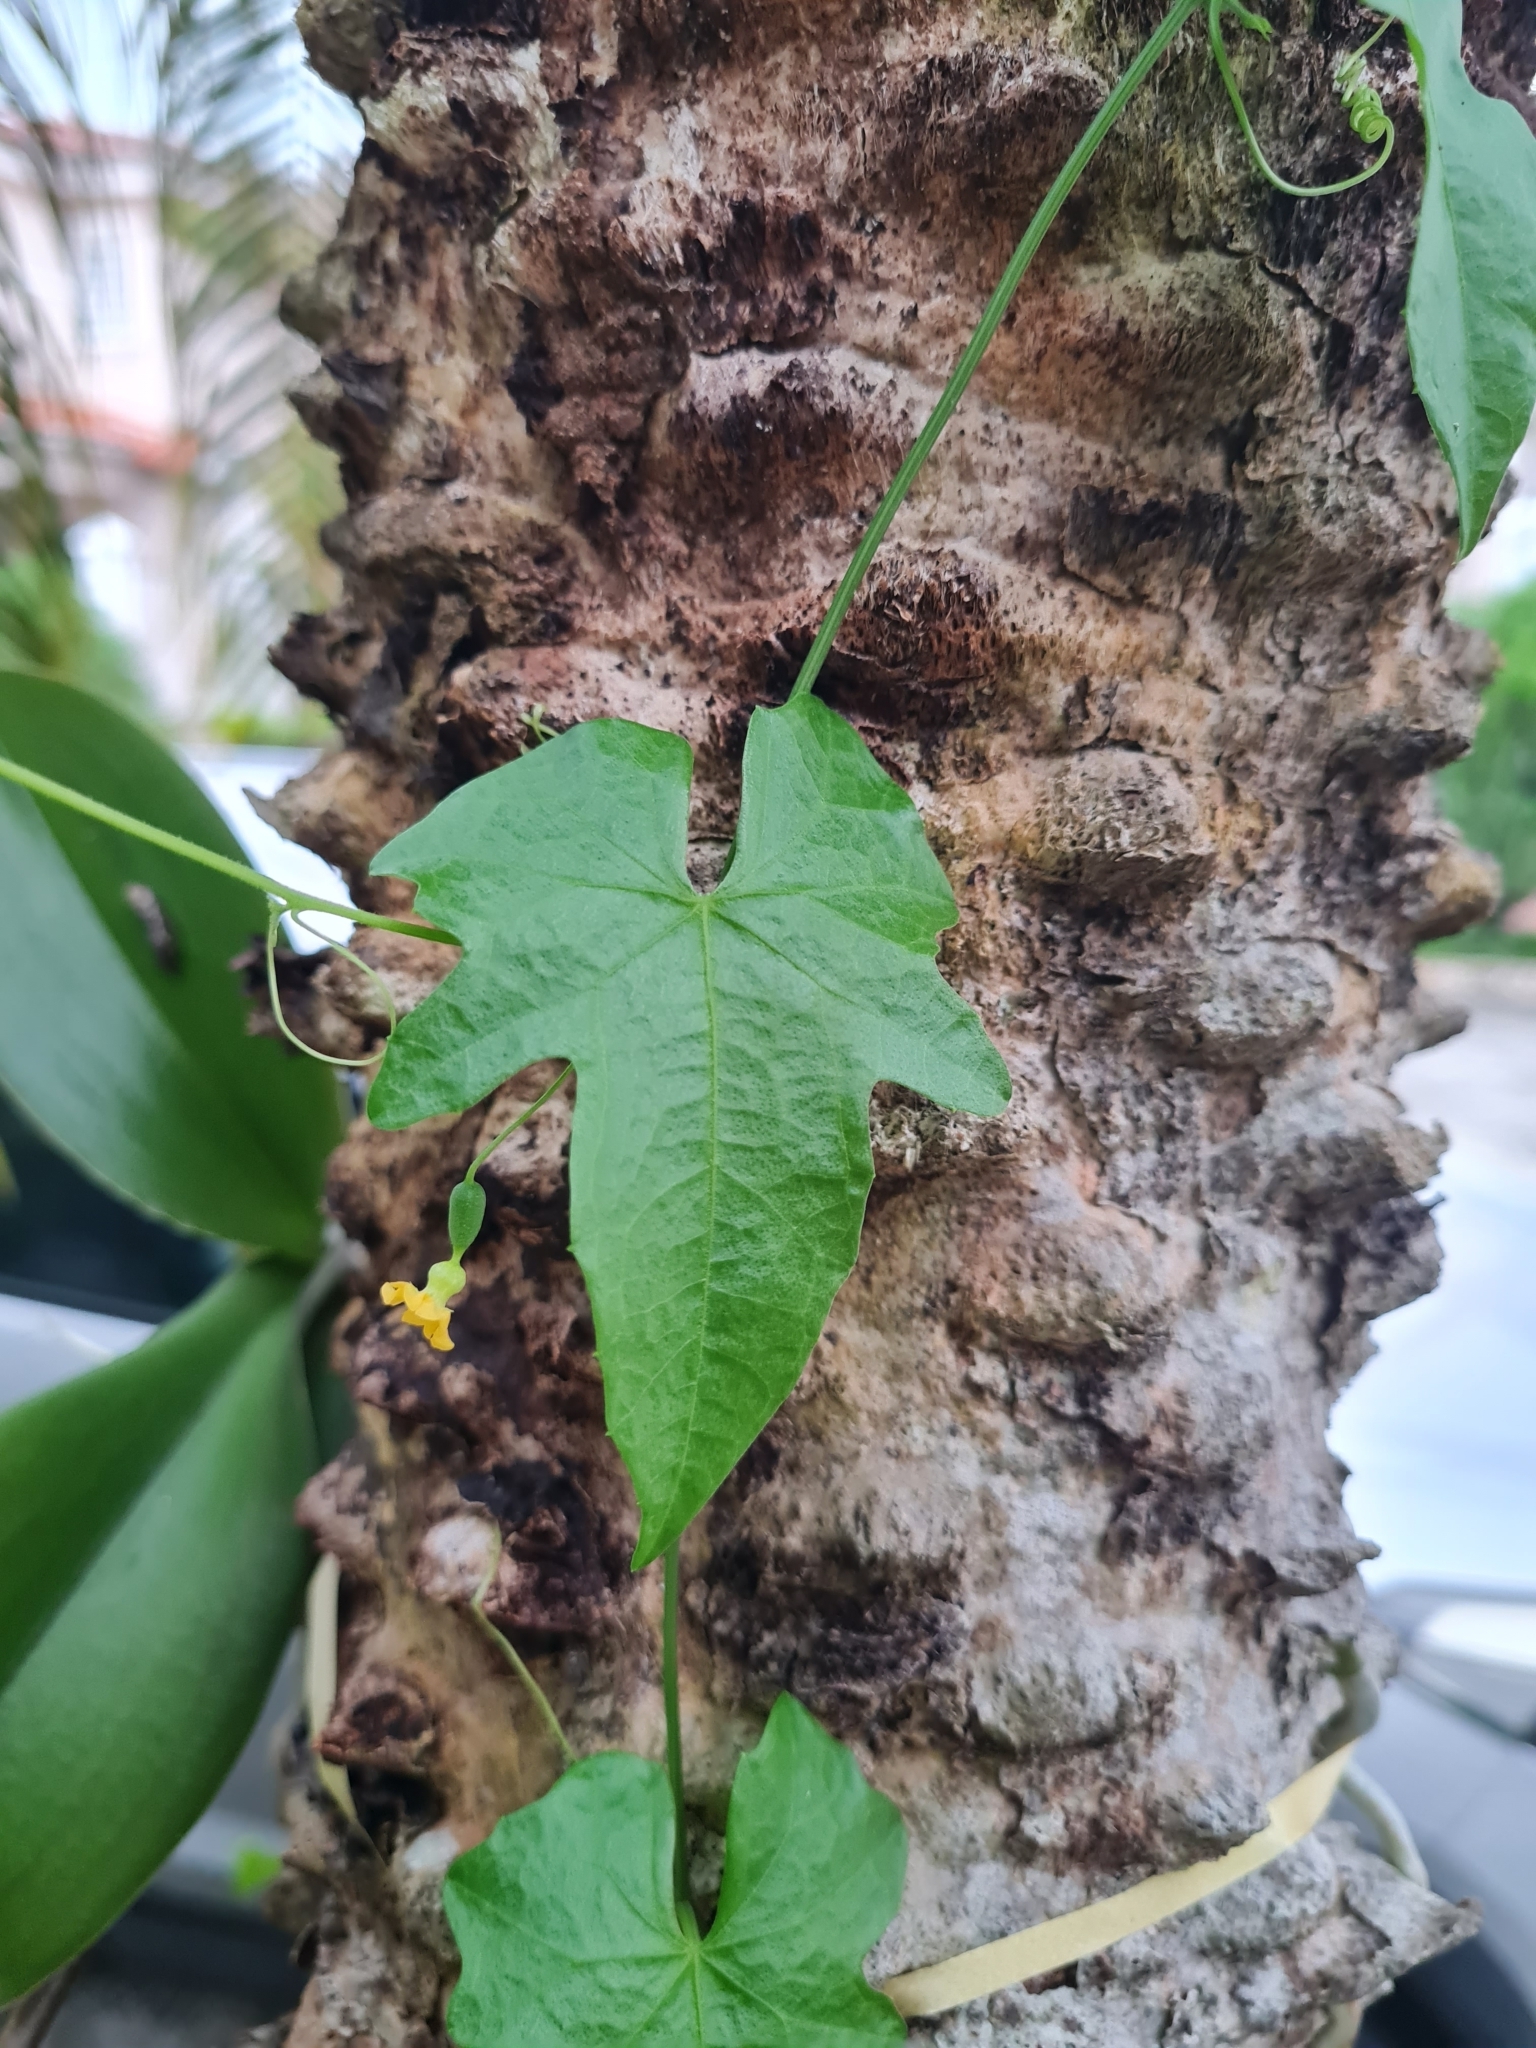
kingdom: Plantae
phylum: Tracheophyta
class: Magnoliopsida
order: Cucurbitales
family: Cucurbitaceae
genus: Melothria
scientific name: Melothria pendula
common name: Creeping-cucumber
